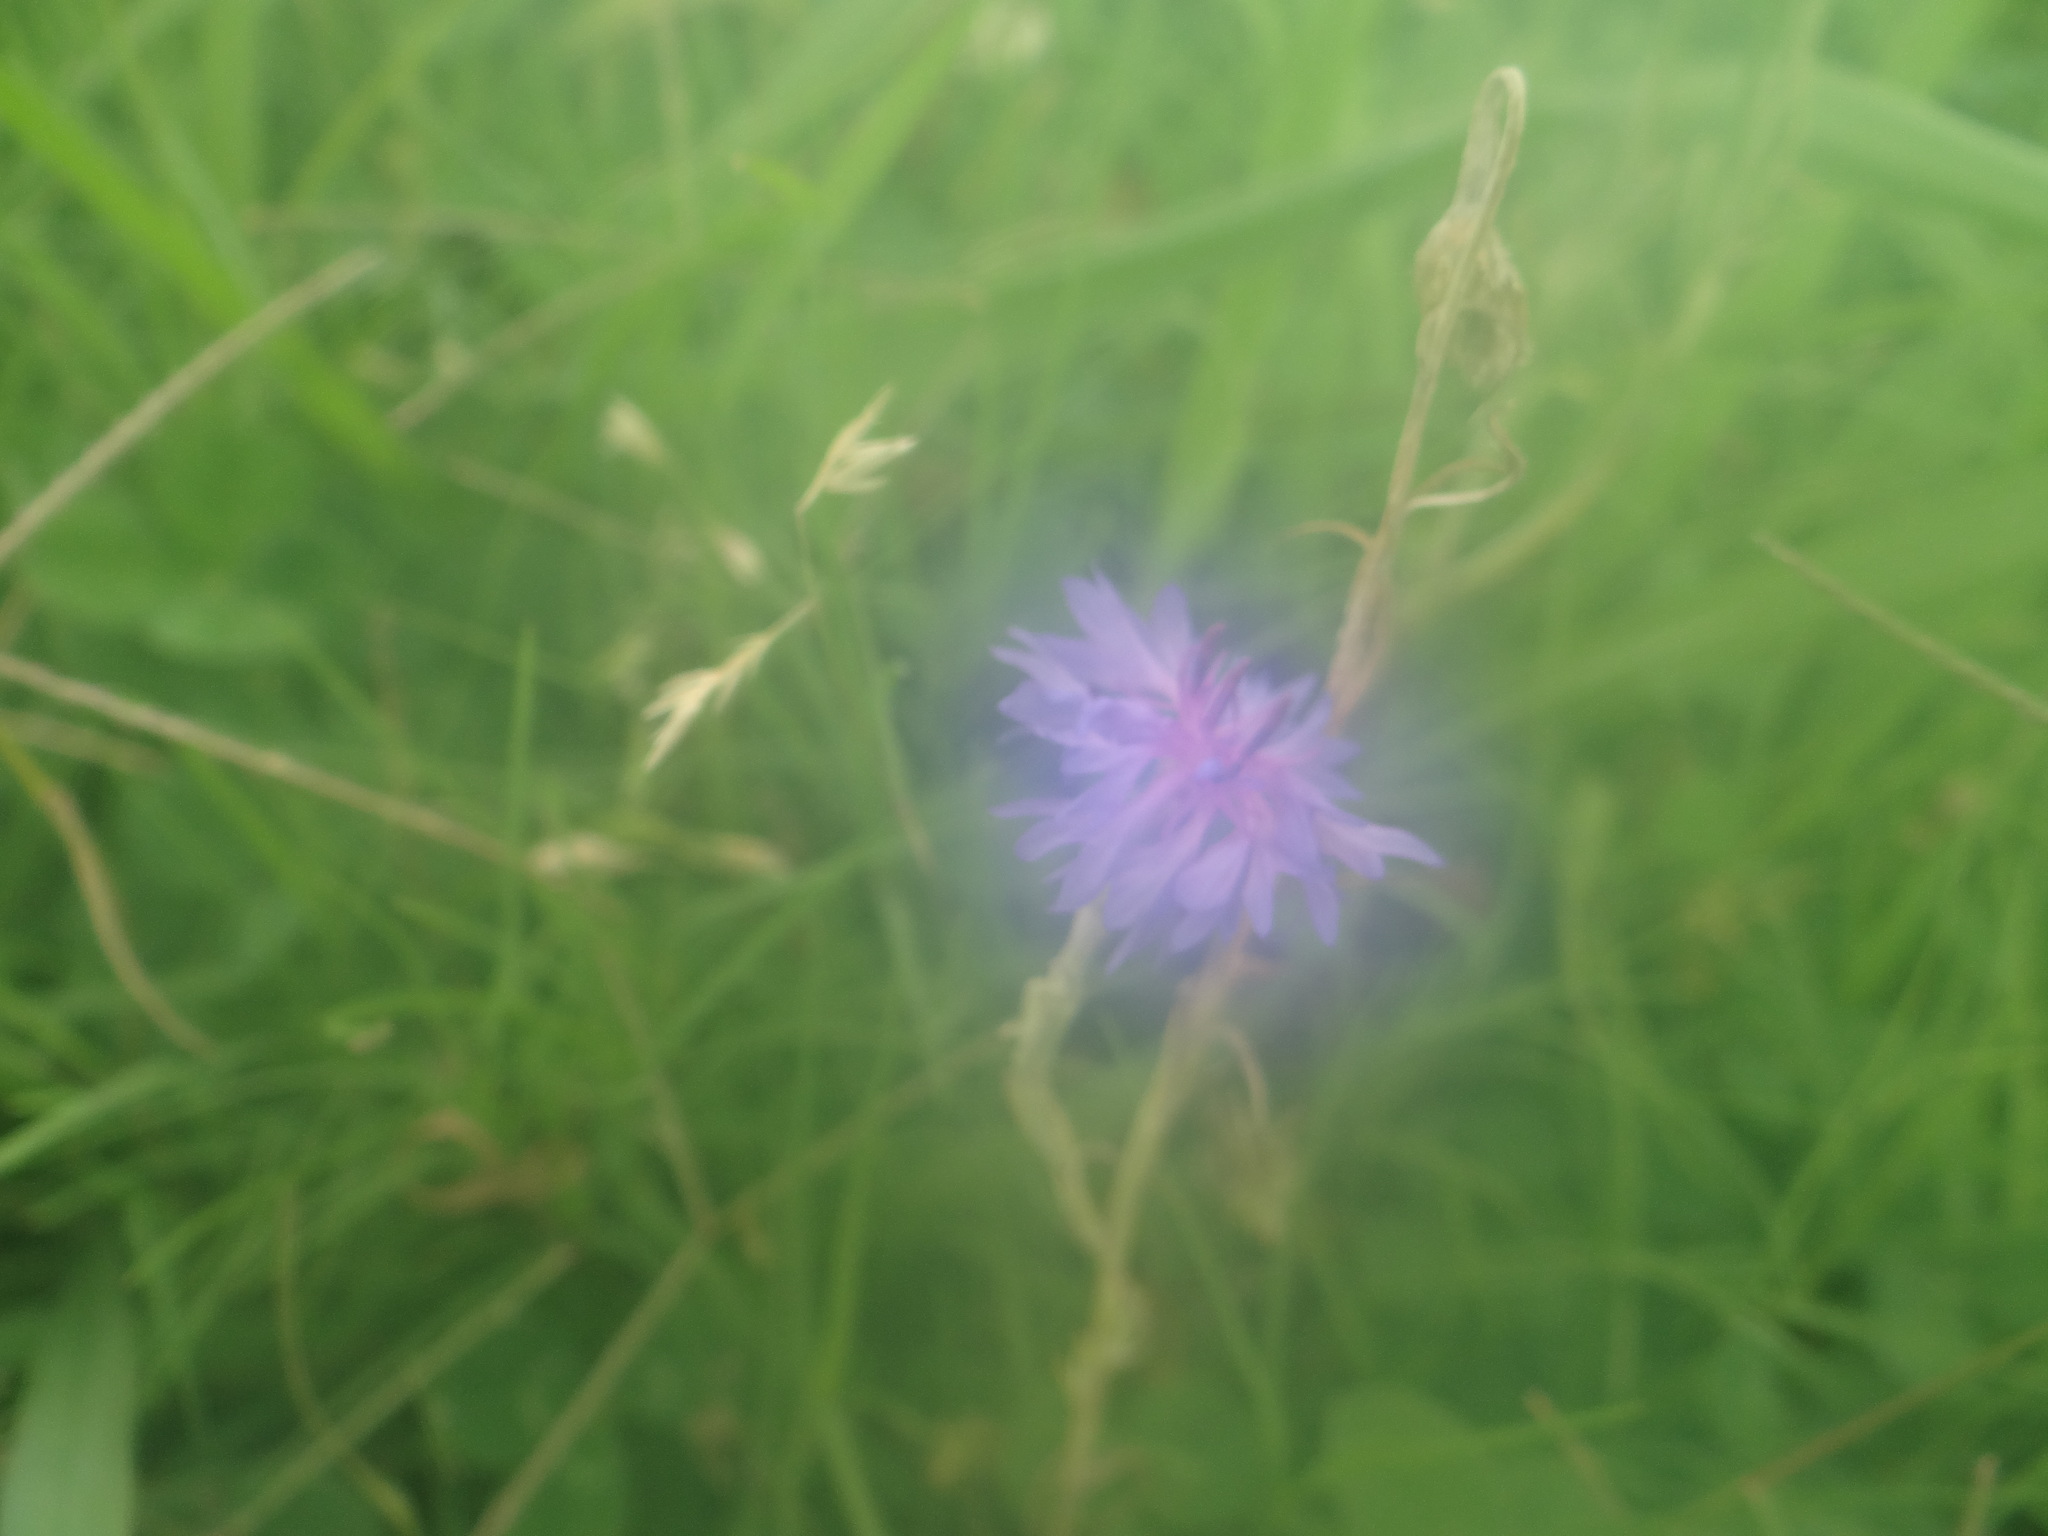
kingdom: Plantae
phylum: Tracheophyta
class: Magnoliopsida
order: Asterales
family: Asteraceae
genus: Centaurea
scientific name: Centaurea cyanus
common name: Cornflower
